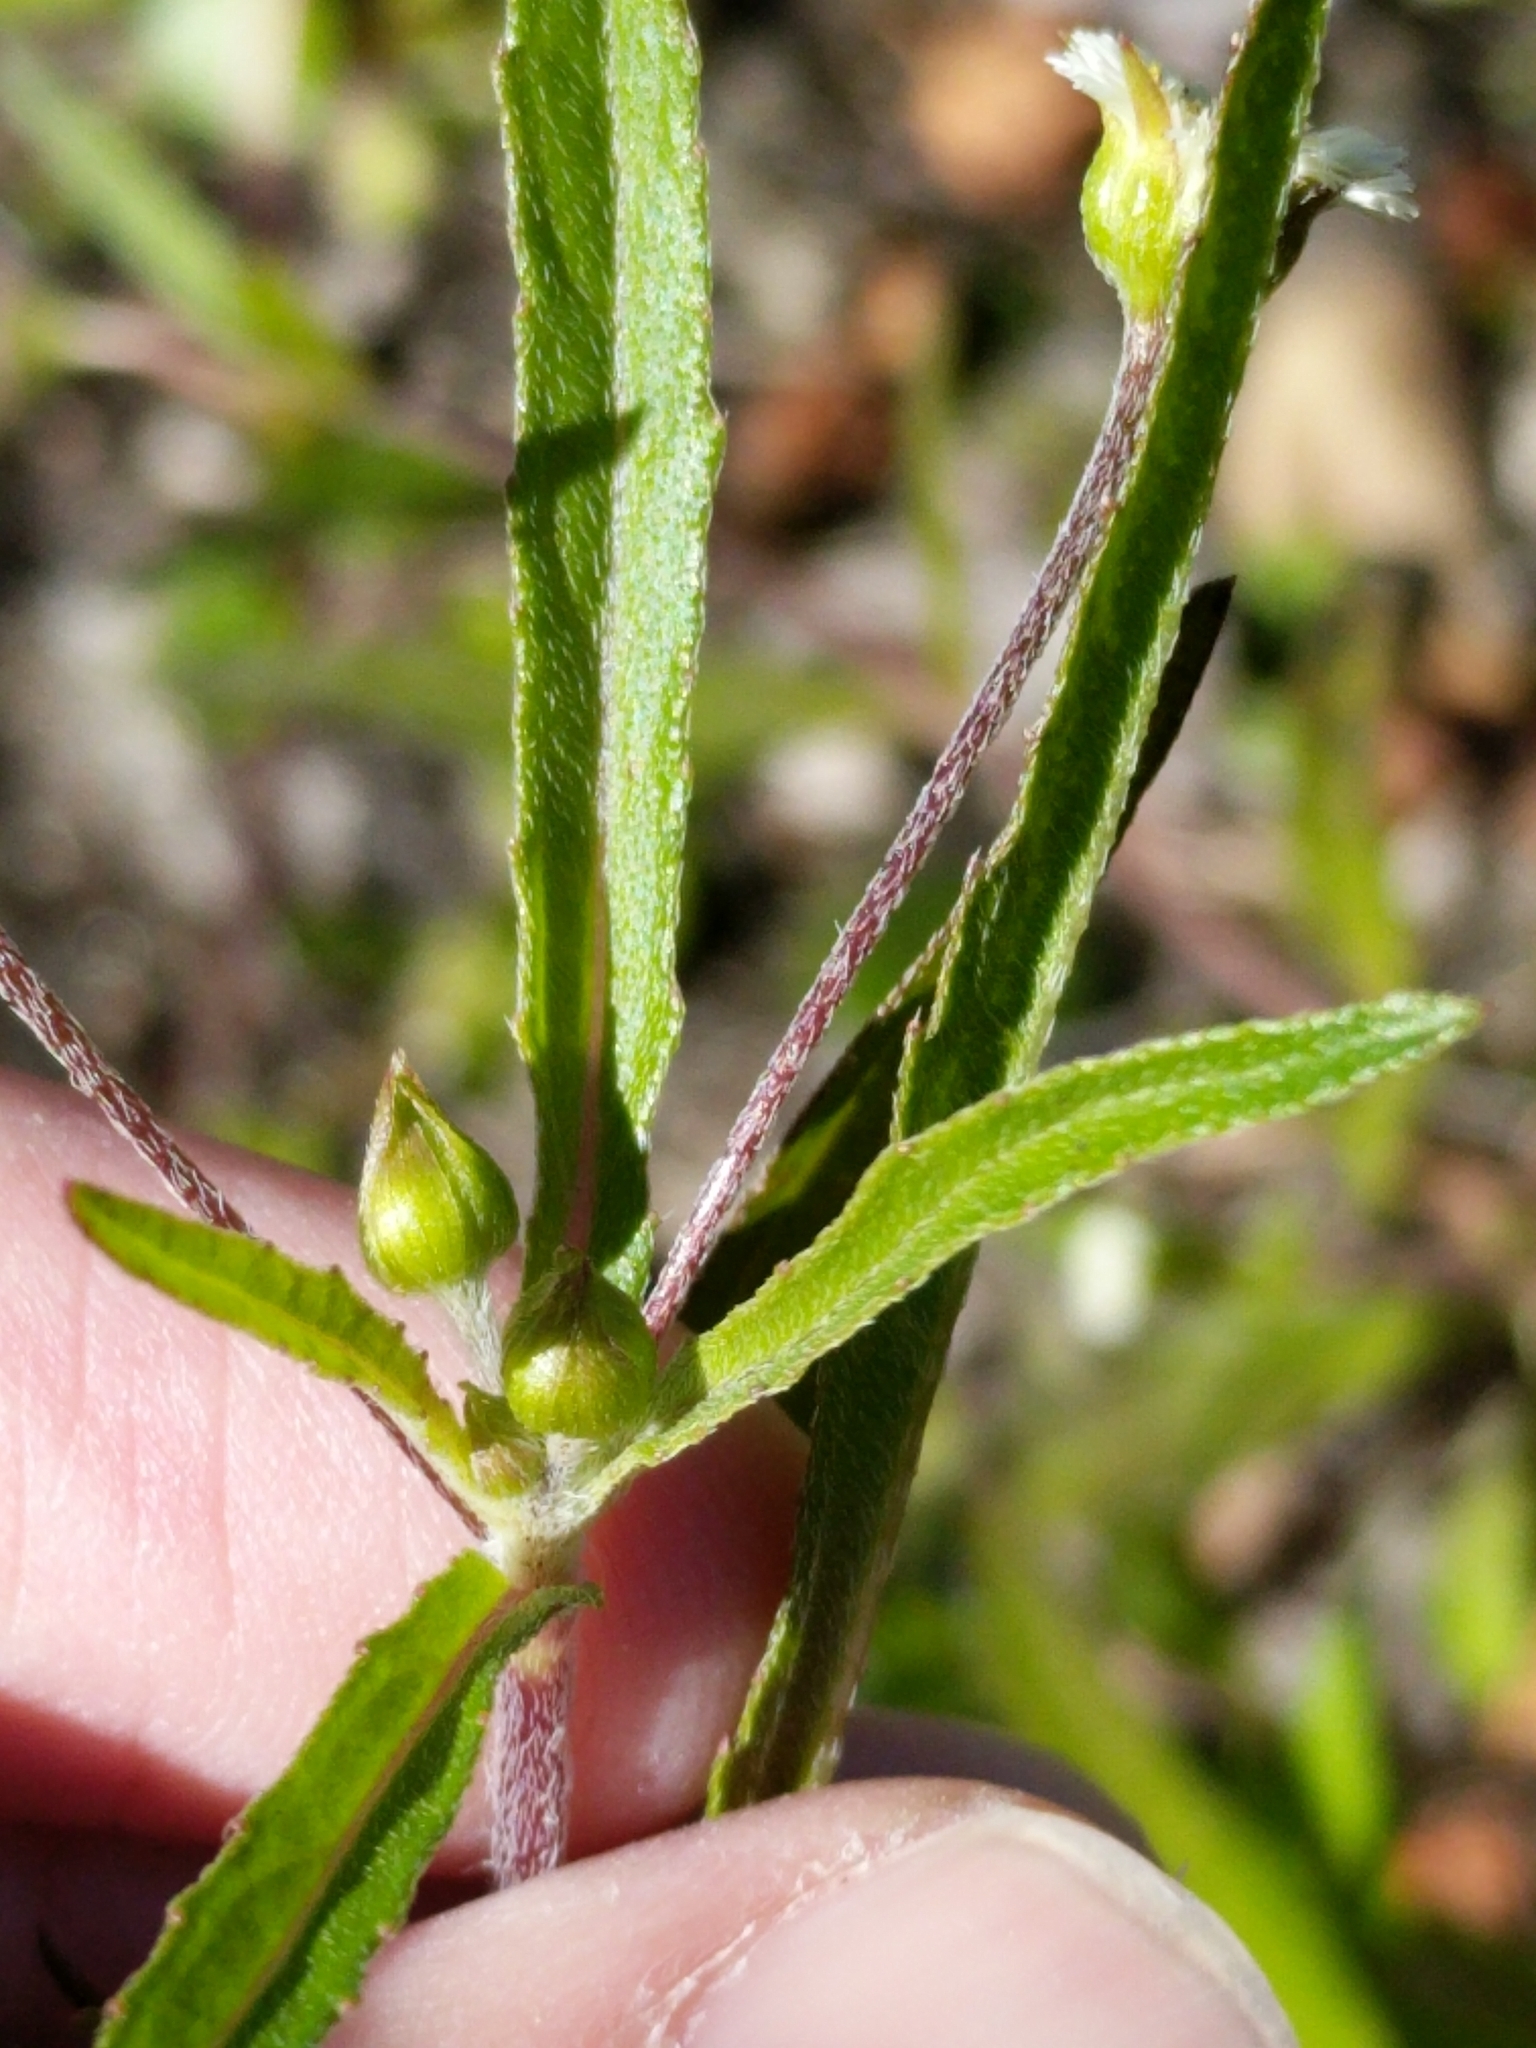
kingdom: Plantae
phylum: Tracheophyta
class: Magnoliopsida
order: Asterales
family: Asteraceae
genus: Eclipta
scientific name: Eclipta prostrata
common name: False daisy
